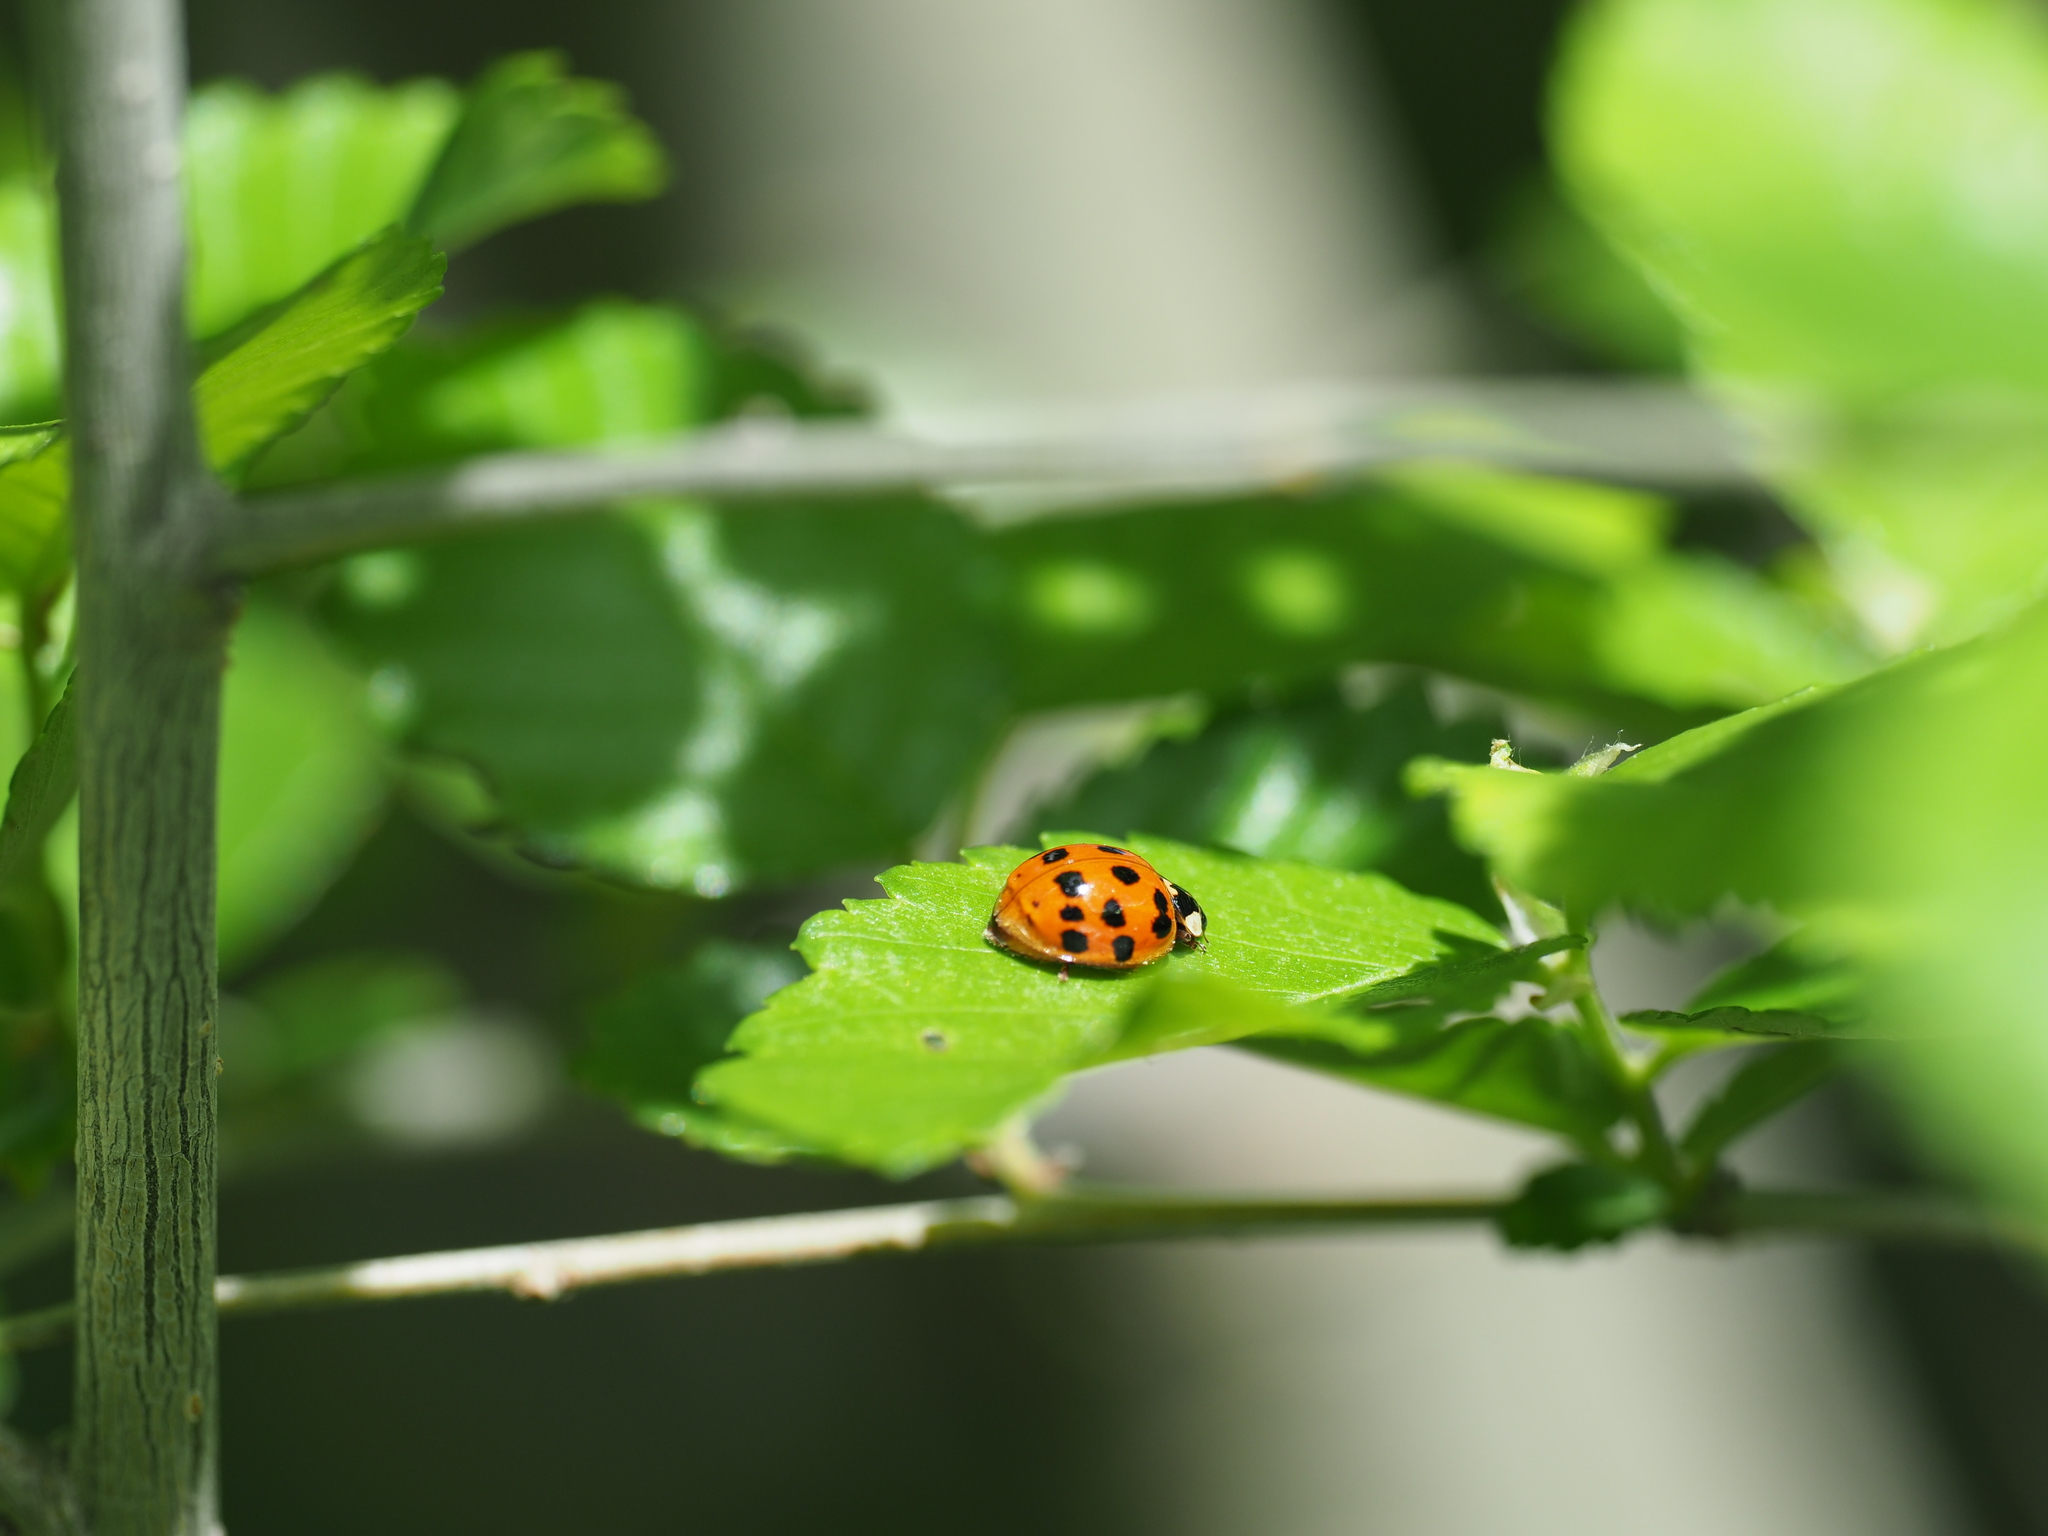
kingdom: Animalia
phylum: Arthropoda
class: Insecta
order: Coleoptera
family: Coccinellidae
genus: Harmonia
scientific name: Harmonia axyridis
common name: Harlequin ladybird
